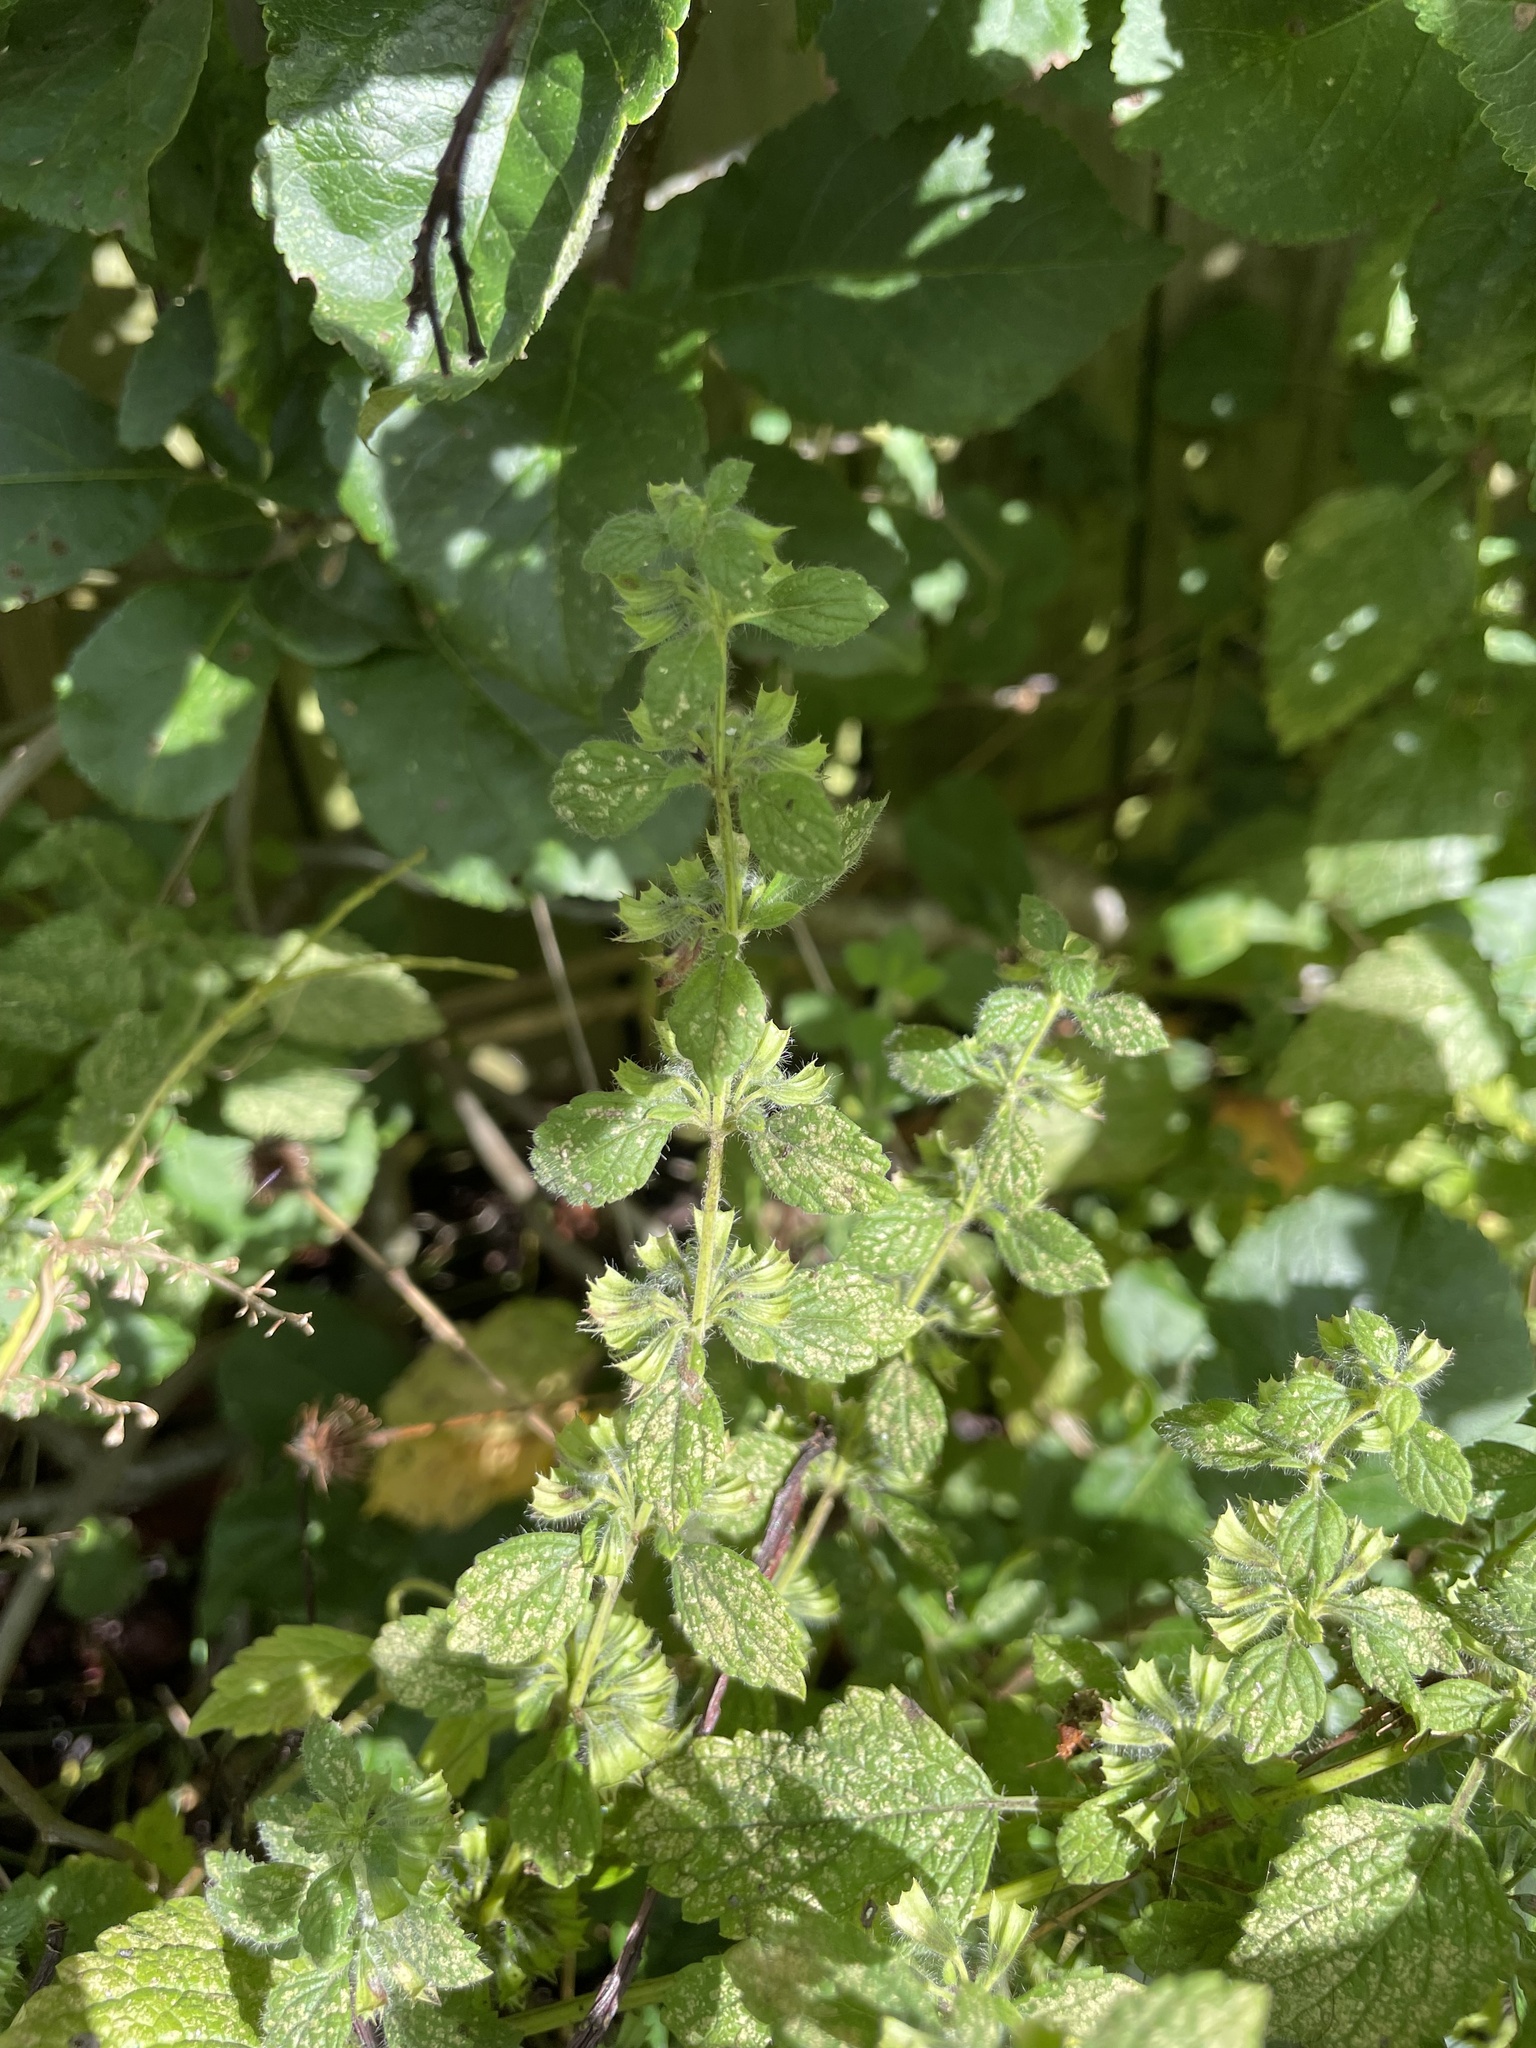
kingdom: Plantae
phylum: Tracheophyta
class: Magnoliopsida
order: Lamiales
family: Lamiaceae
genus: Melissa
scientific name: Melissa officinalis
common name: Balm
